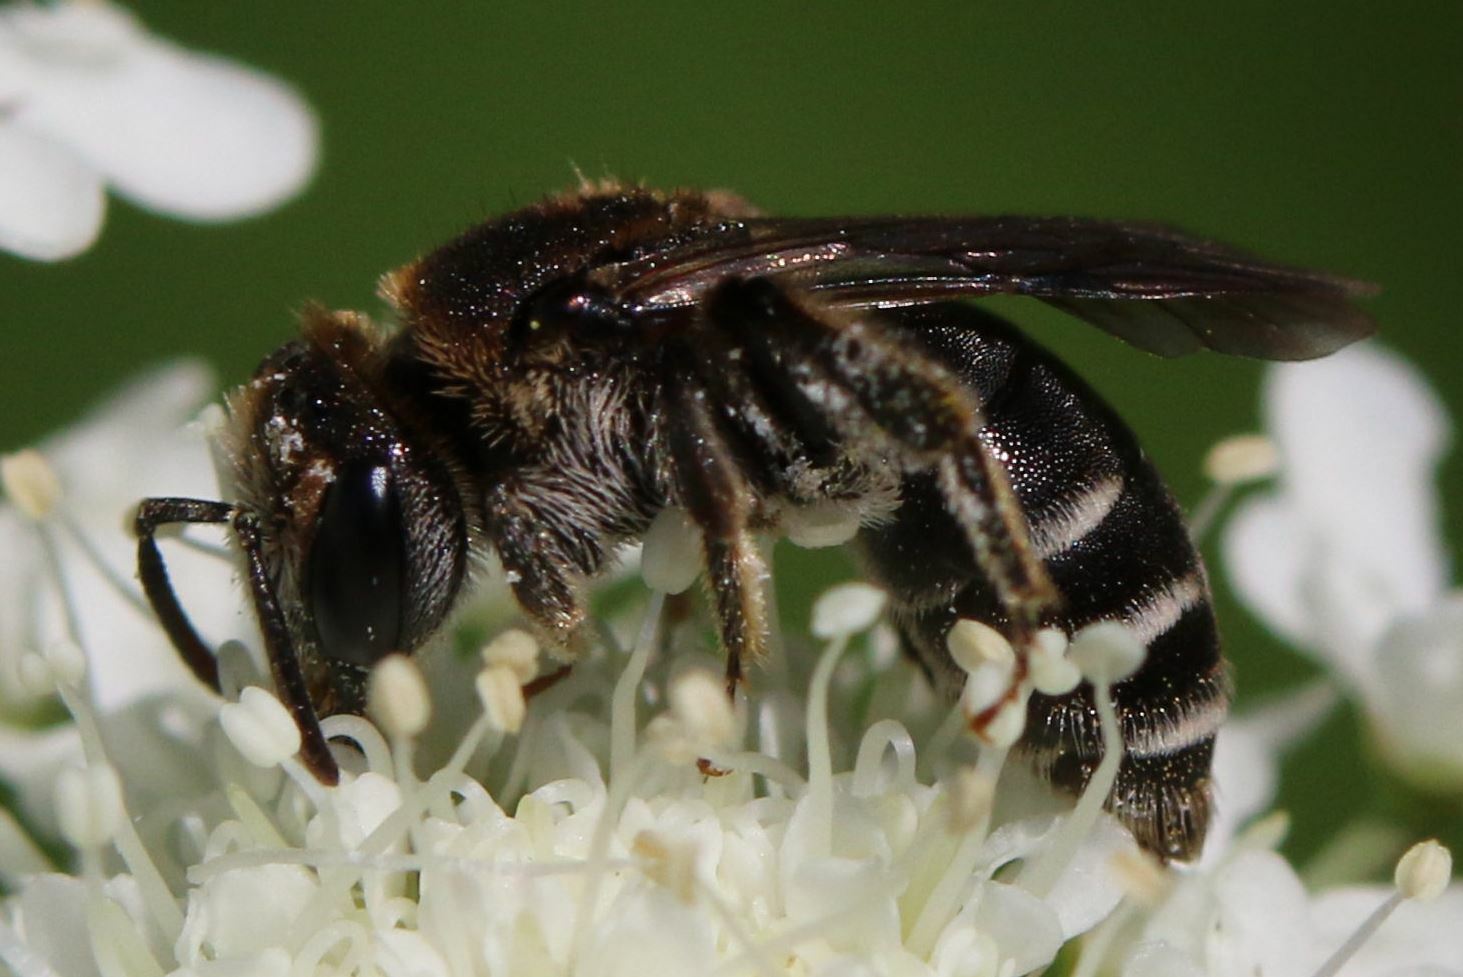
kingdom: Animalia
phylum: Arthropoda
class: Insecta
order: Hymenoptera
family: Andrenidae
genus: Andrena
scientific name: Andrena colletiformis
